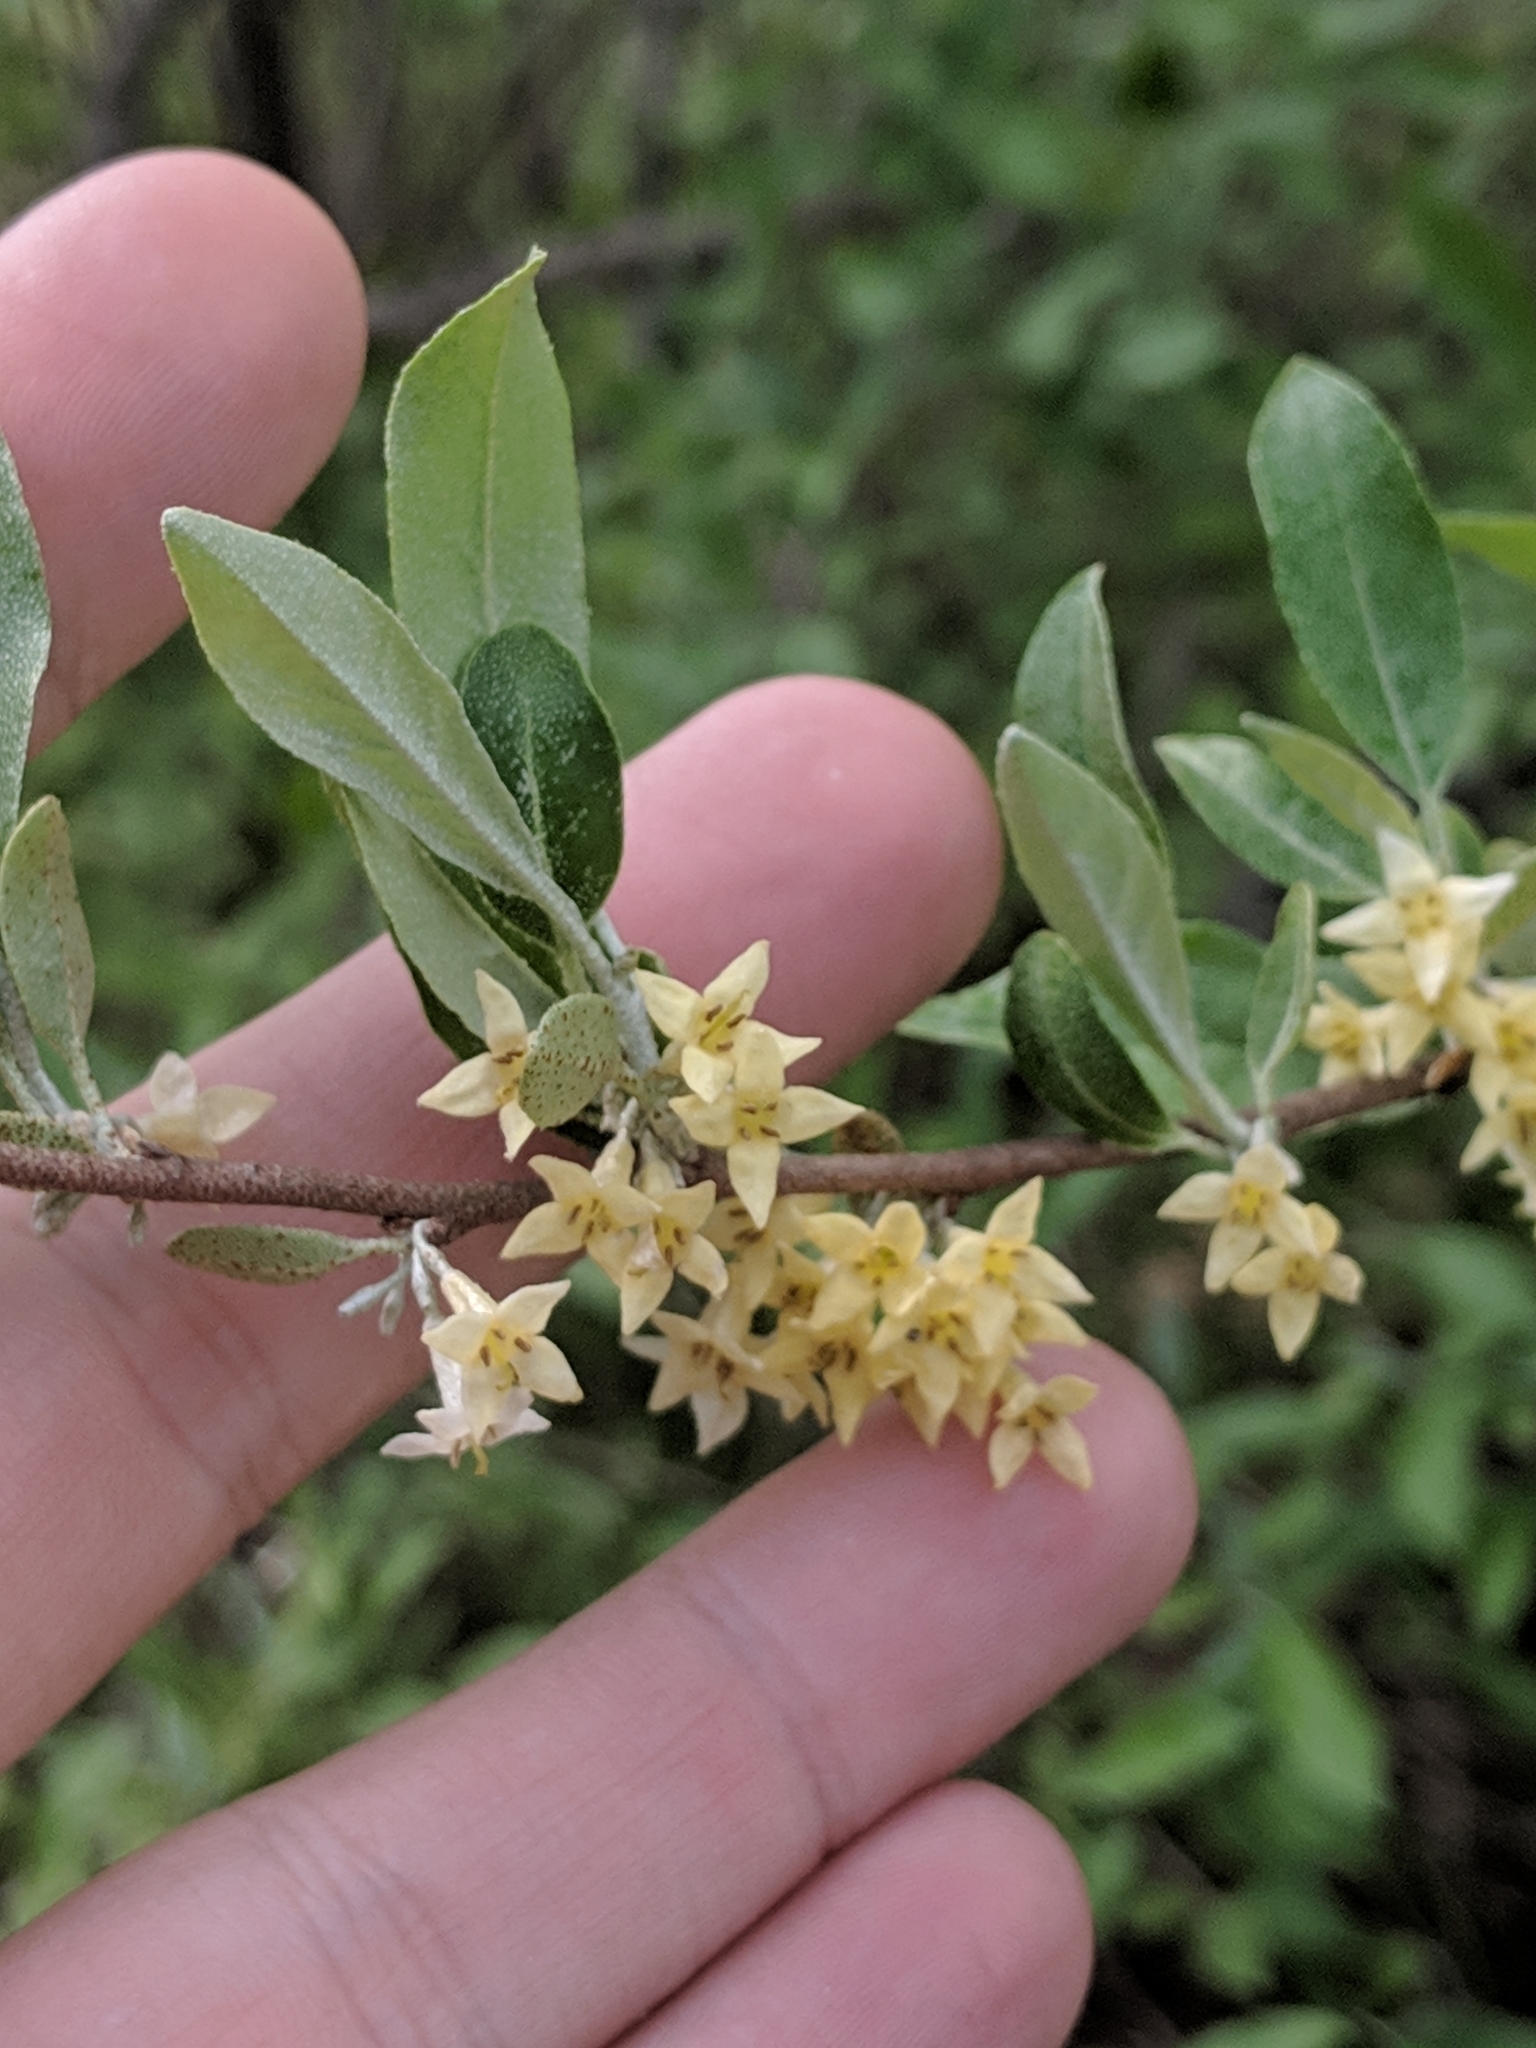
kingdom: Plantae
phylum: Tracheophyta
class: Magnoliopsida
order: Rosales
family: Elaeagnaceae
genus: Elaeagnus
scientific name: Elaeagnus umbellata
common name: Autumn olive
